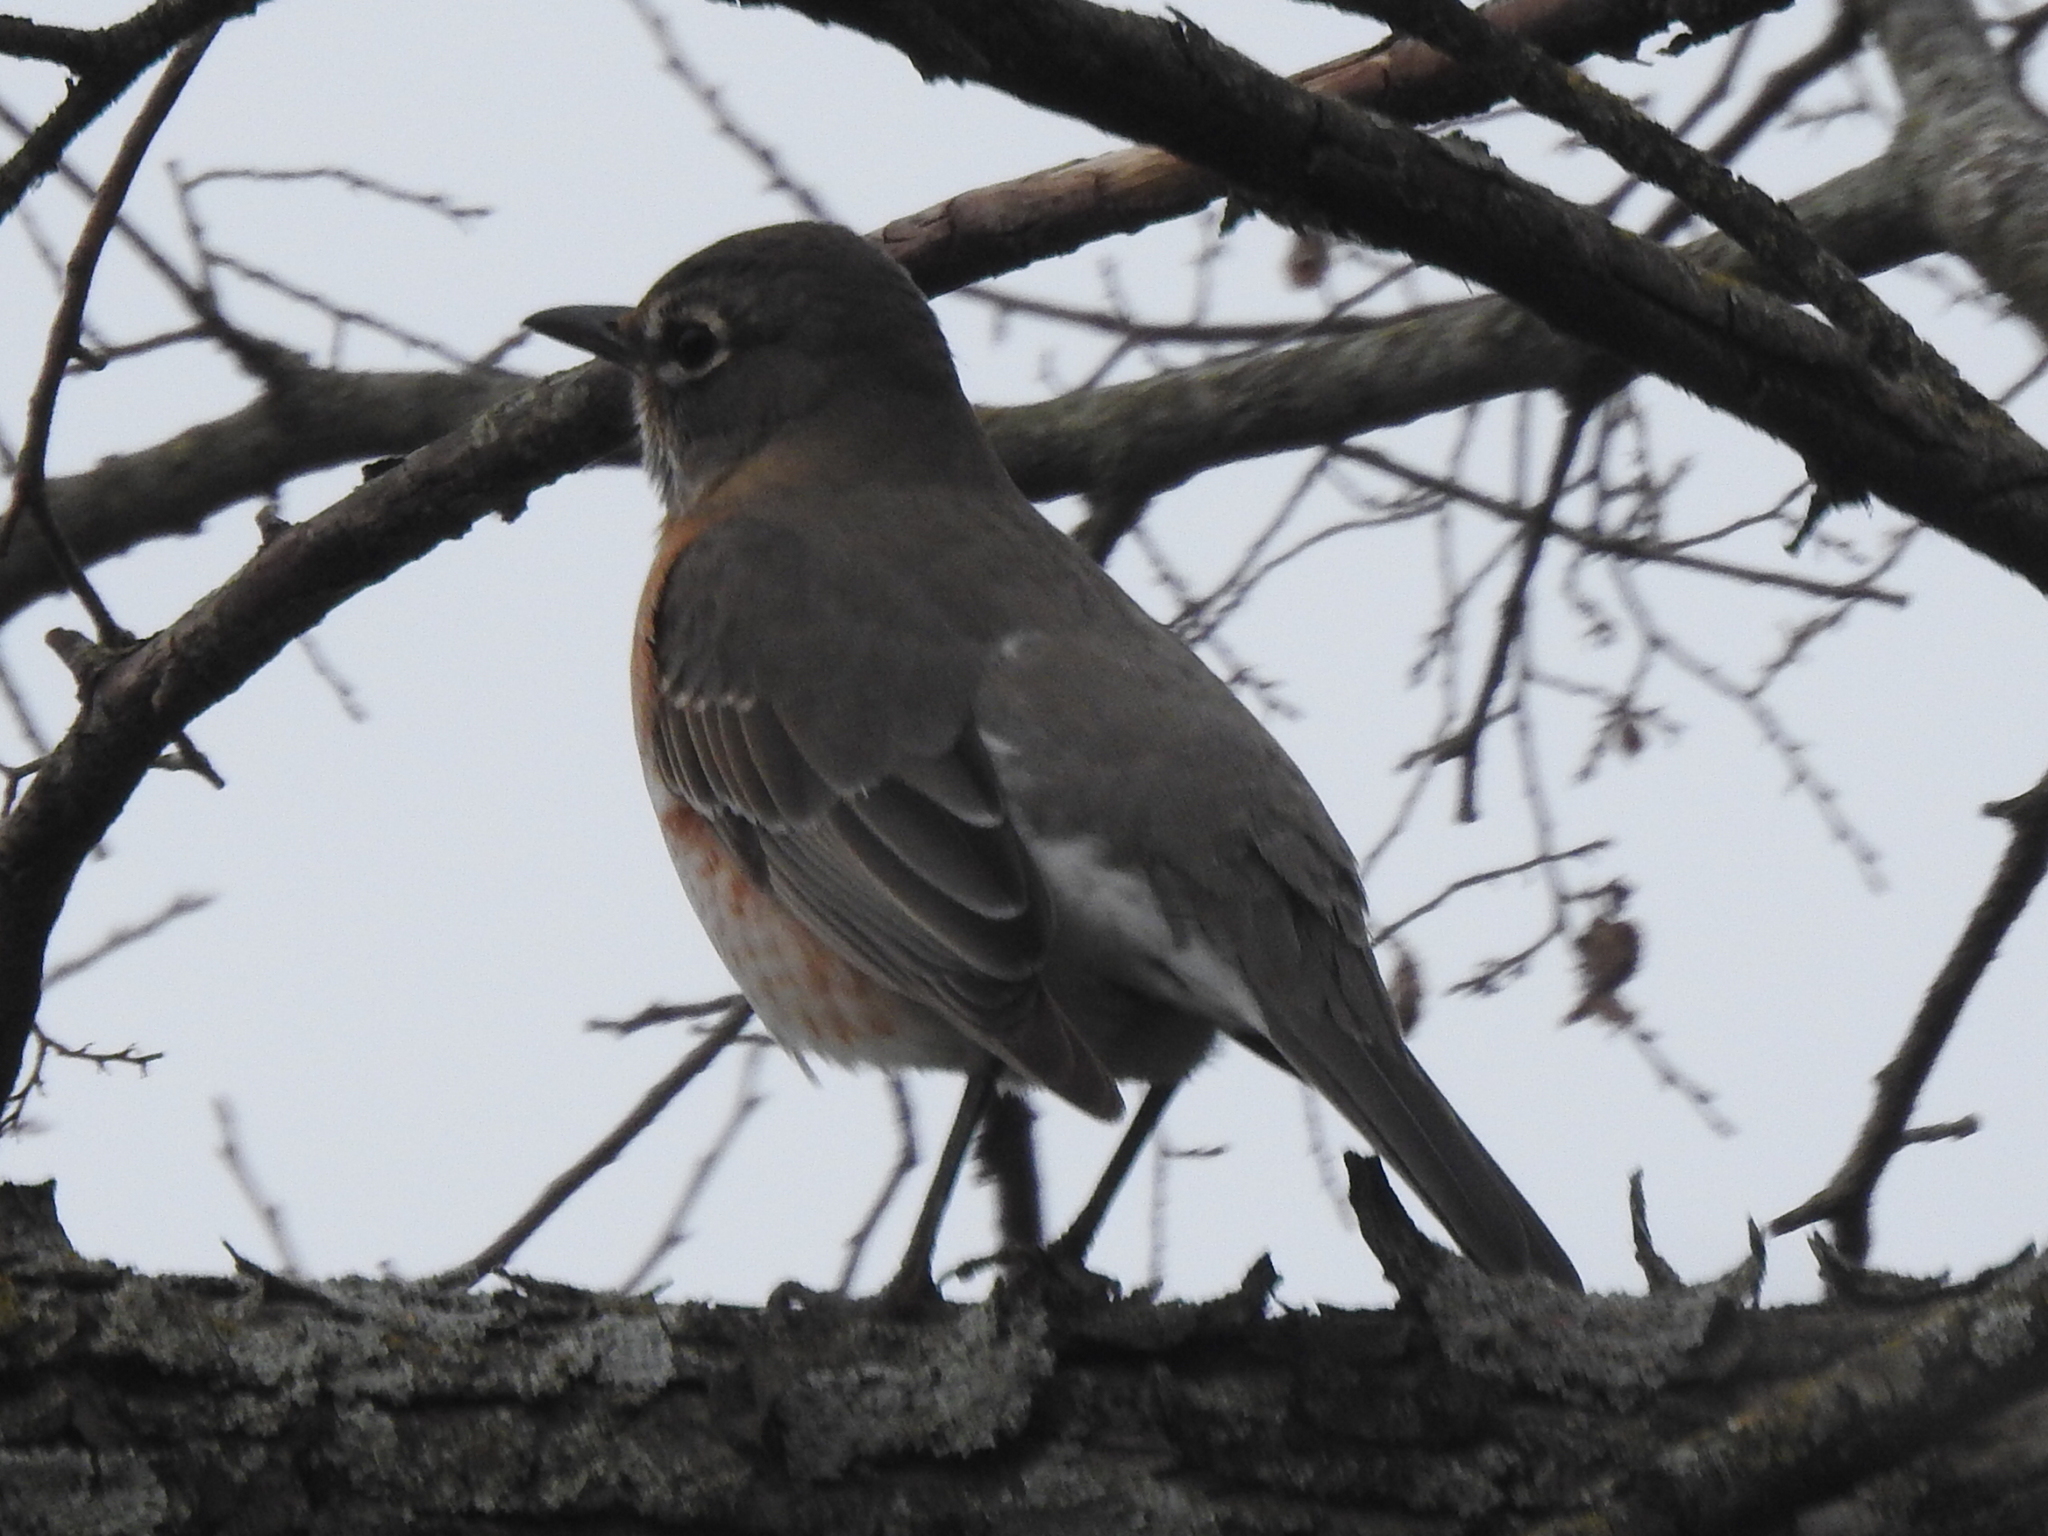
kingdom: Animalia
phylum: Chordata
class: Aves
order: Passeriformes
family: Turdidae
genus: Turdus
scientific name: Turdus migratorius
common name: American robin
